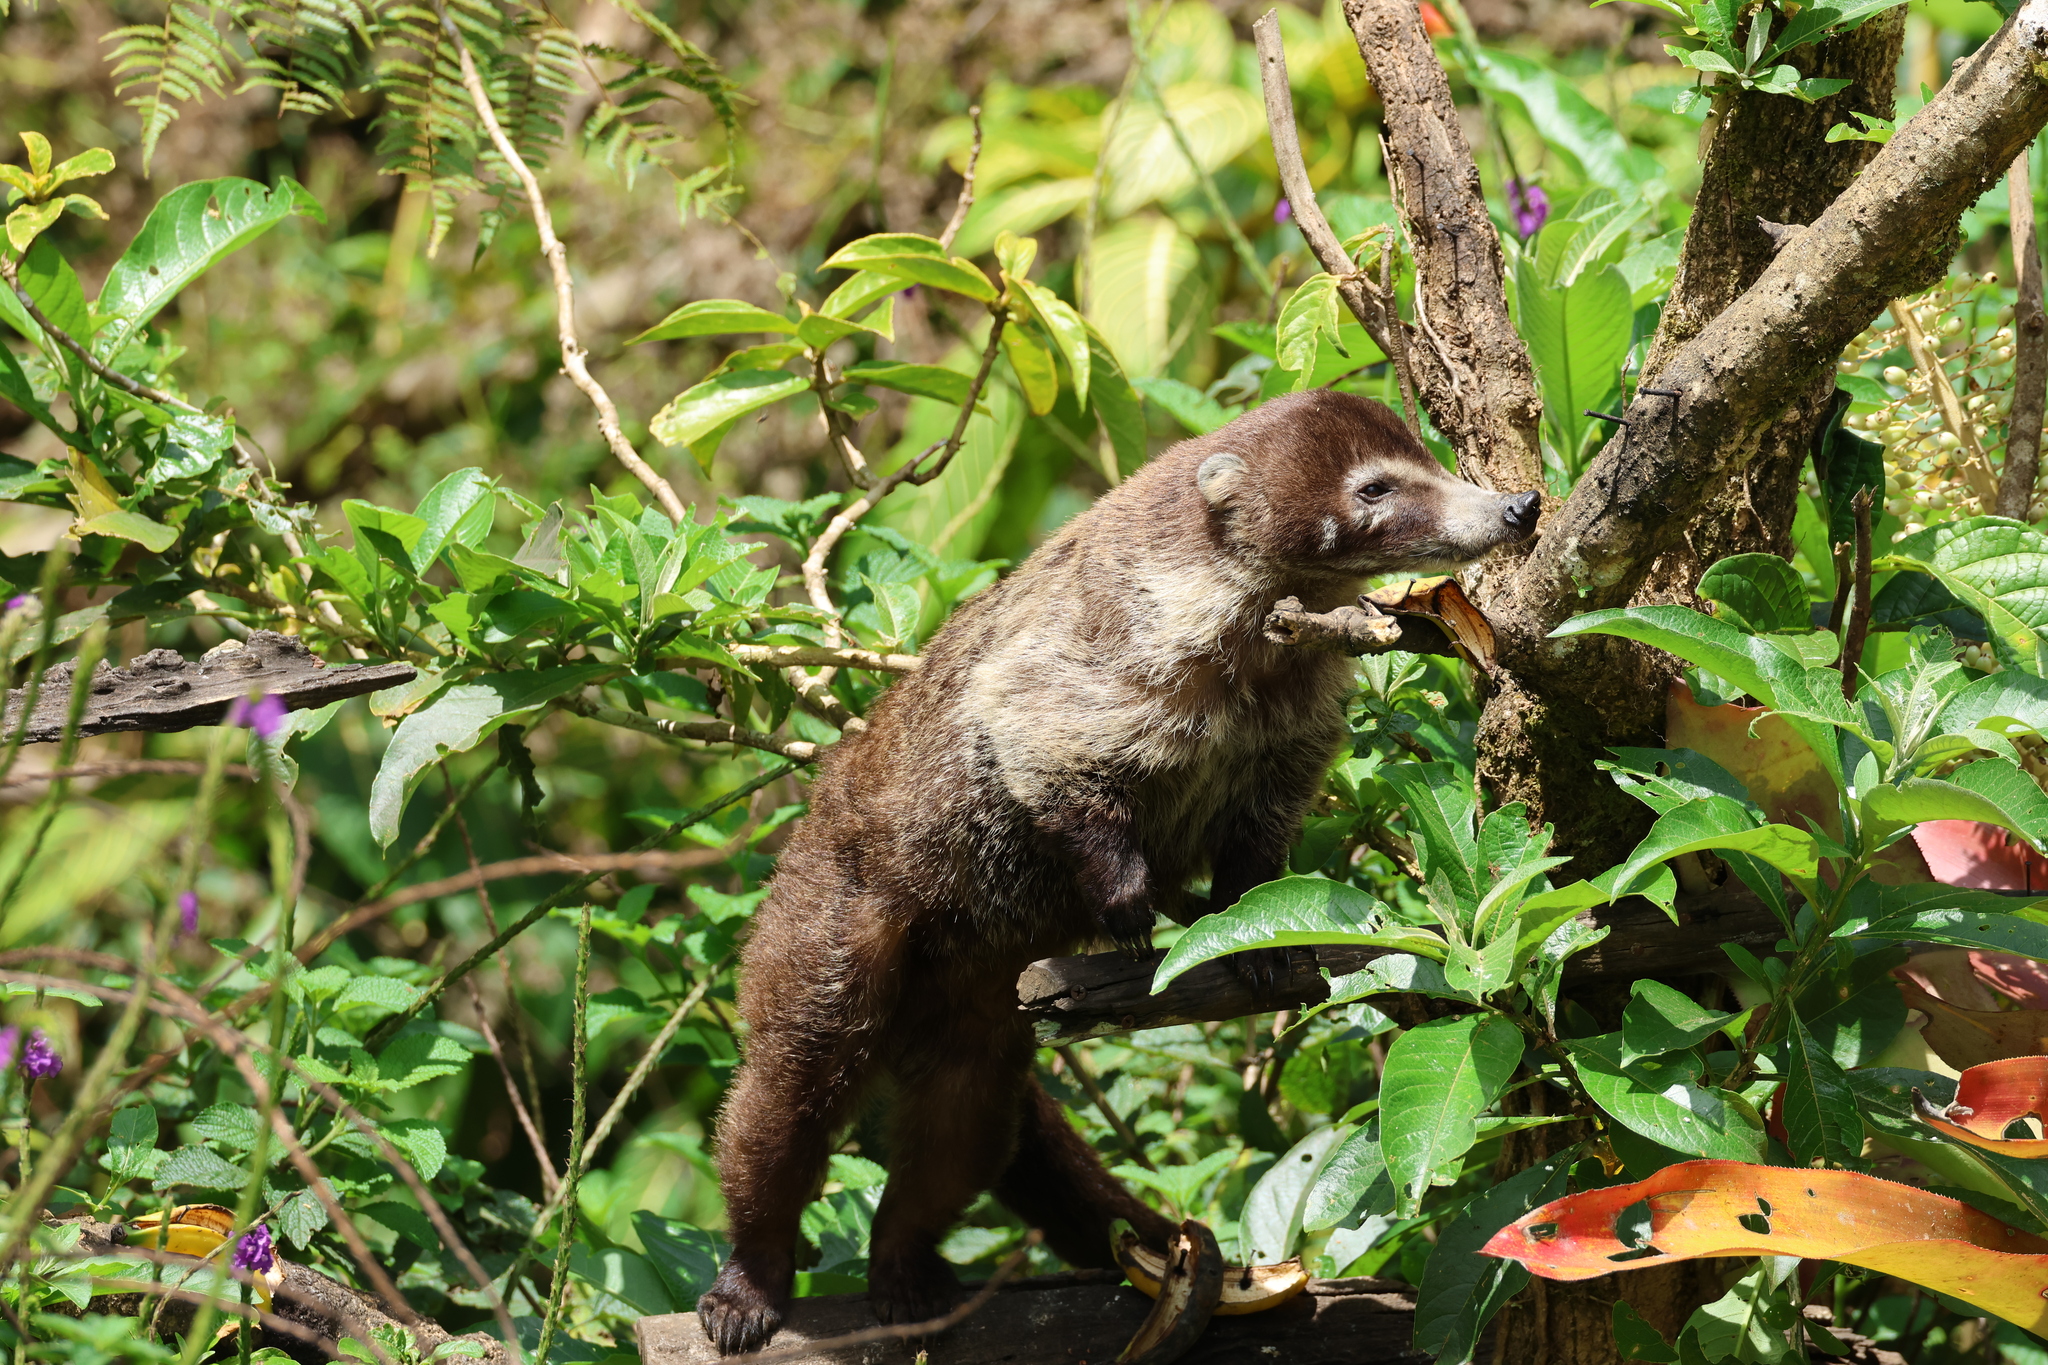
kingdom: Animalia
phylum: Chordata
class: Mammalia
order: Carnivora
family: Procyonidae
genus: Nasua
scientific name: Nasua narica
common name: White-nosed coati
